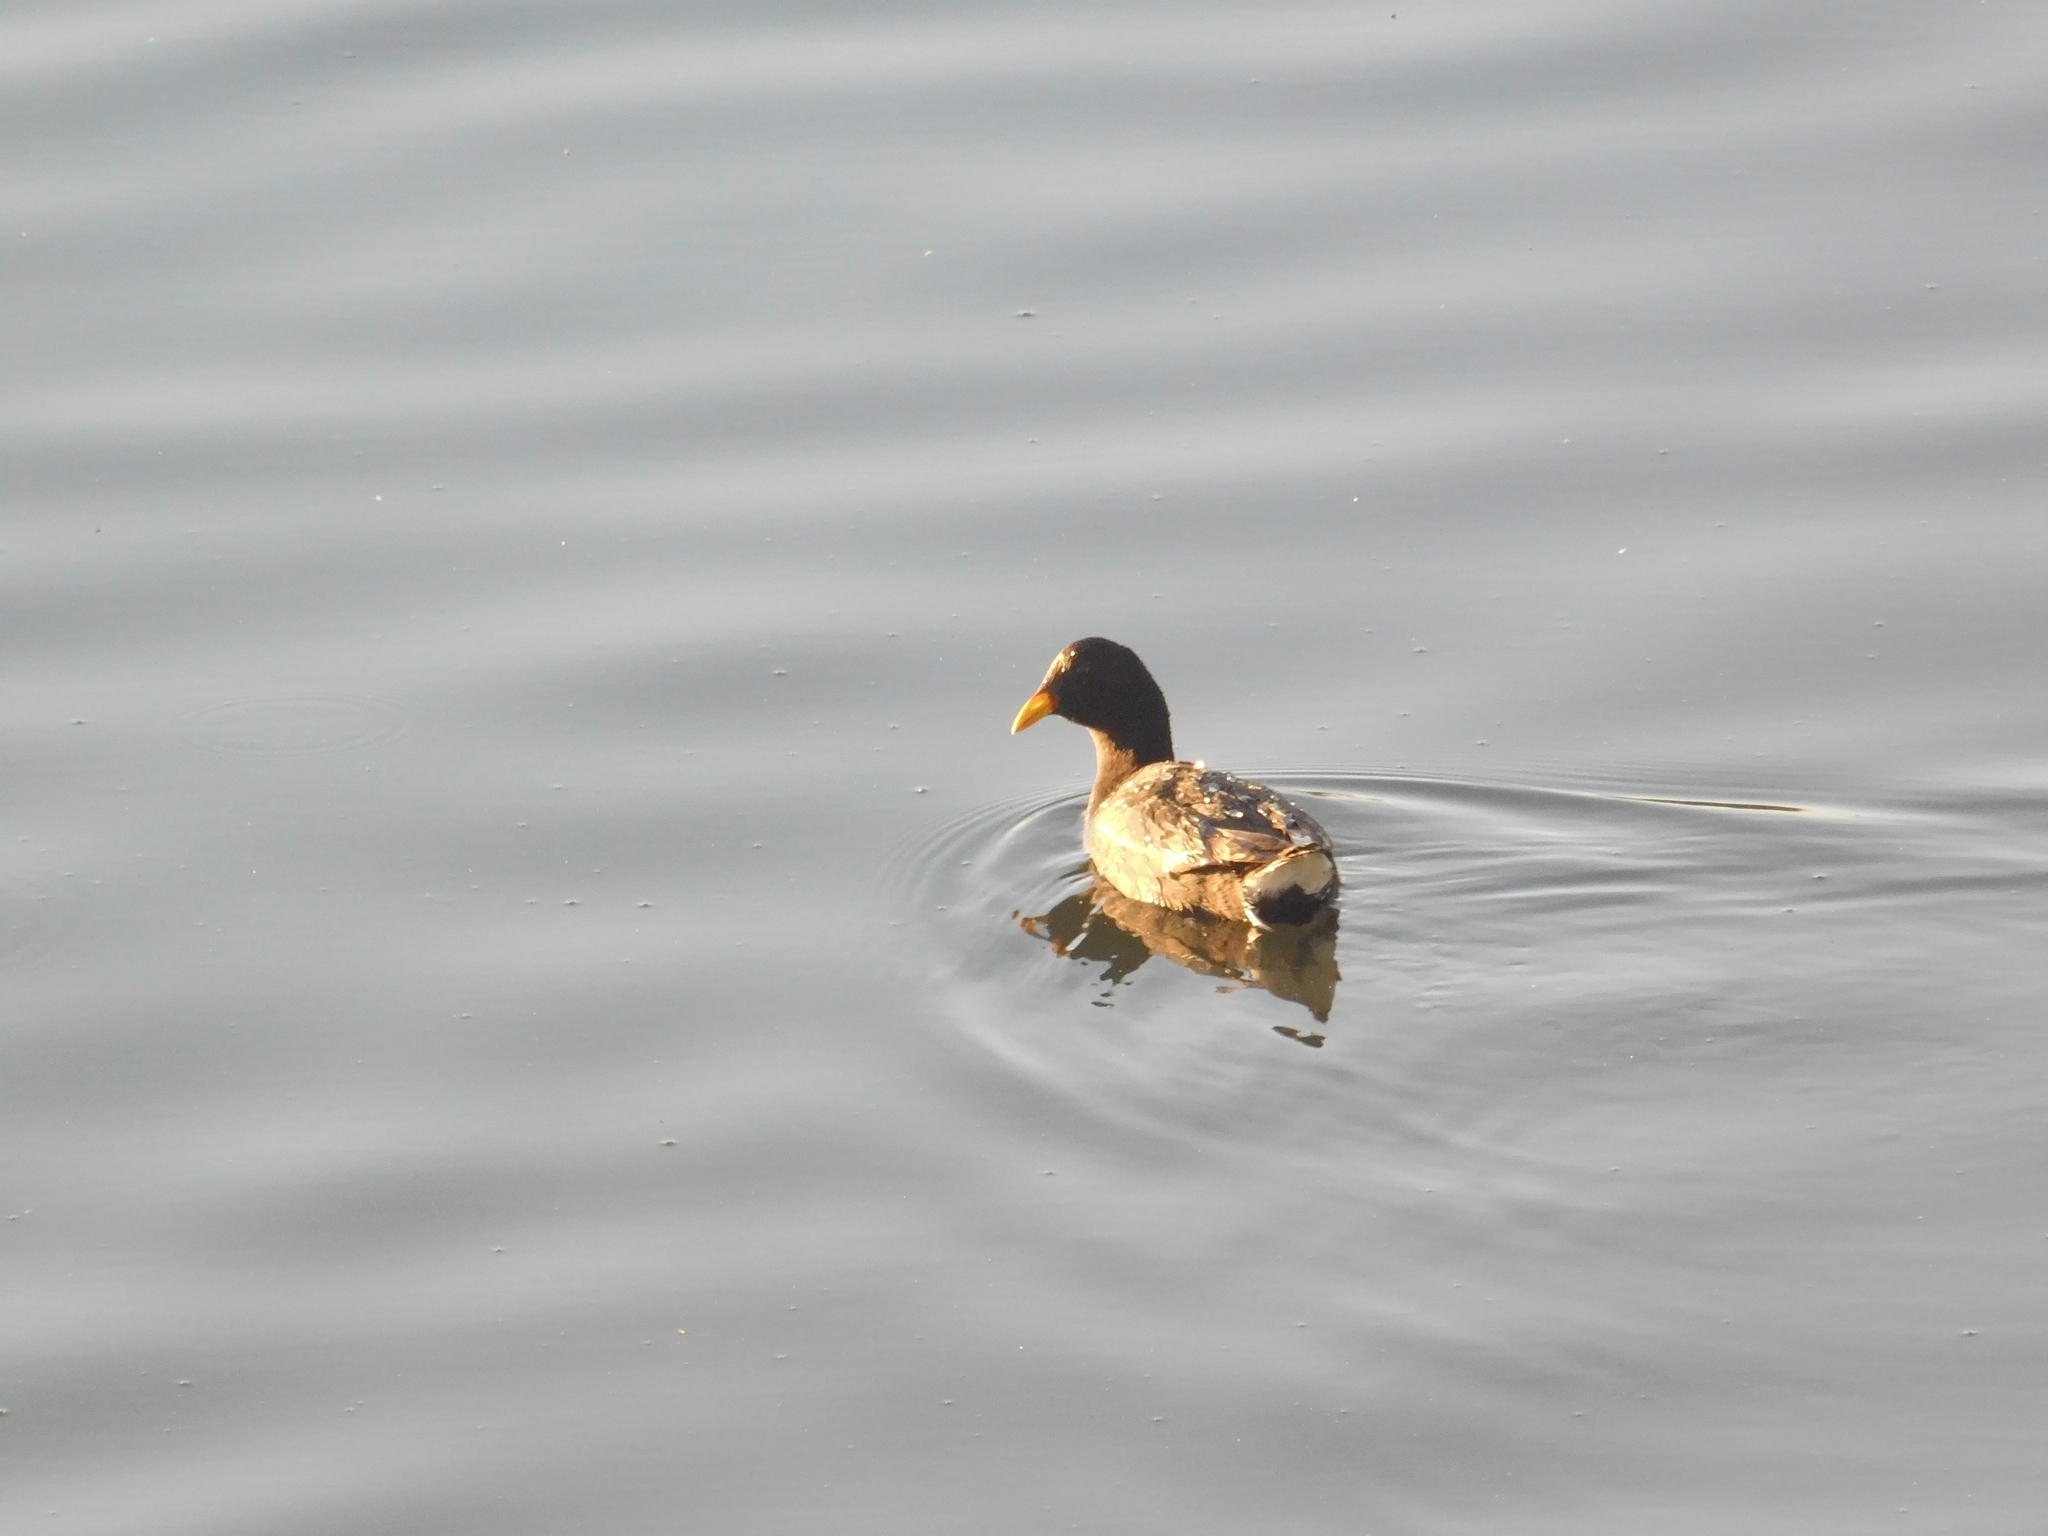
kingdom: Animalia
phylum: Chordata
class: Aves
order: Gruiformes
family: Rallidae
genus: Fulica
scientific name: Fulica rufifrons
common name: Red-fronted coot
